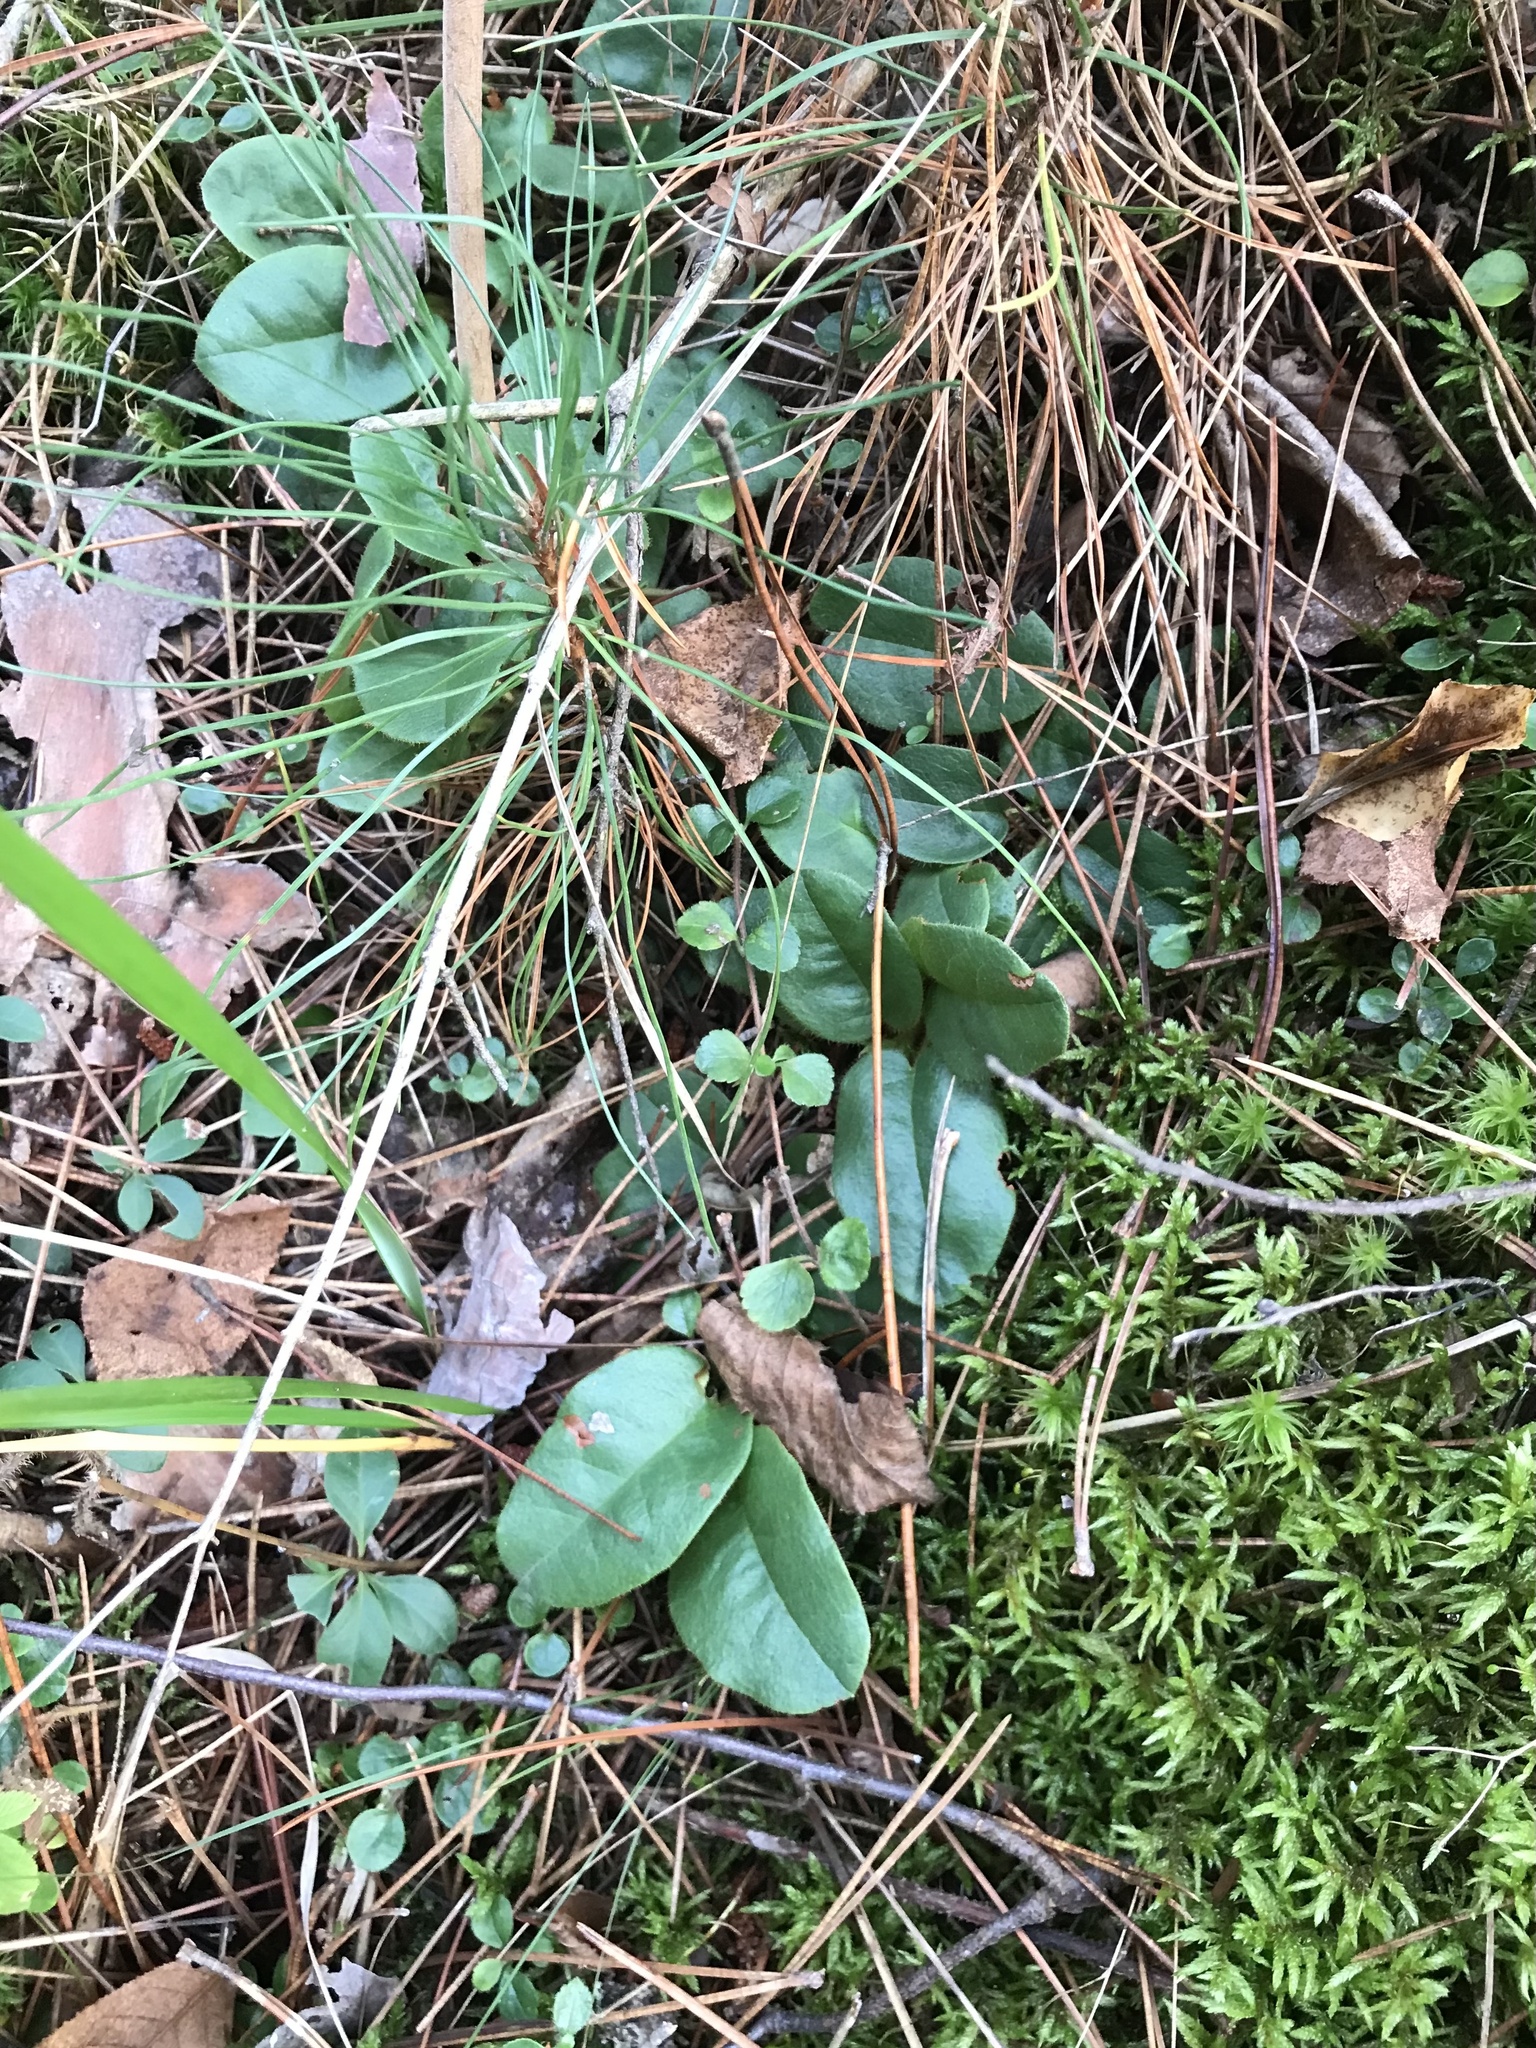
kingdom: Plantae
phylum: Tracheophyta
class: Magnoliopsida
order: Ericales
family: Ericaceae
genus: Epigaea
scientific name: Epigaea repens
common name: Gravelroot
